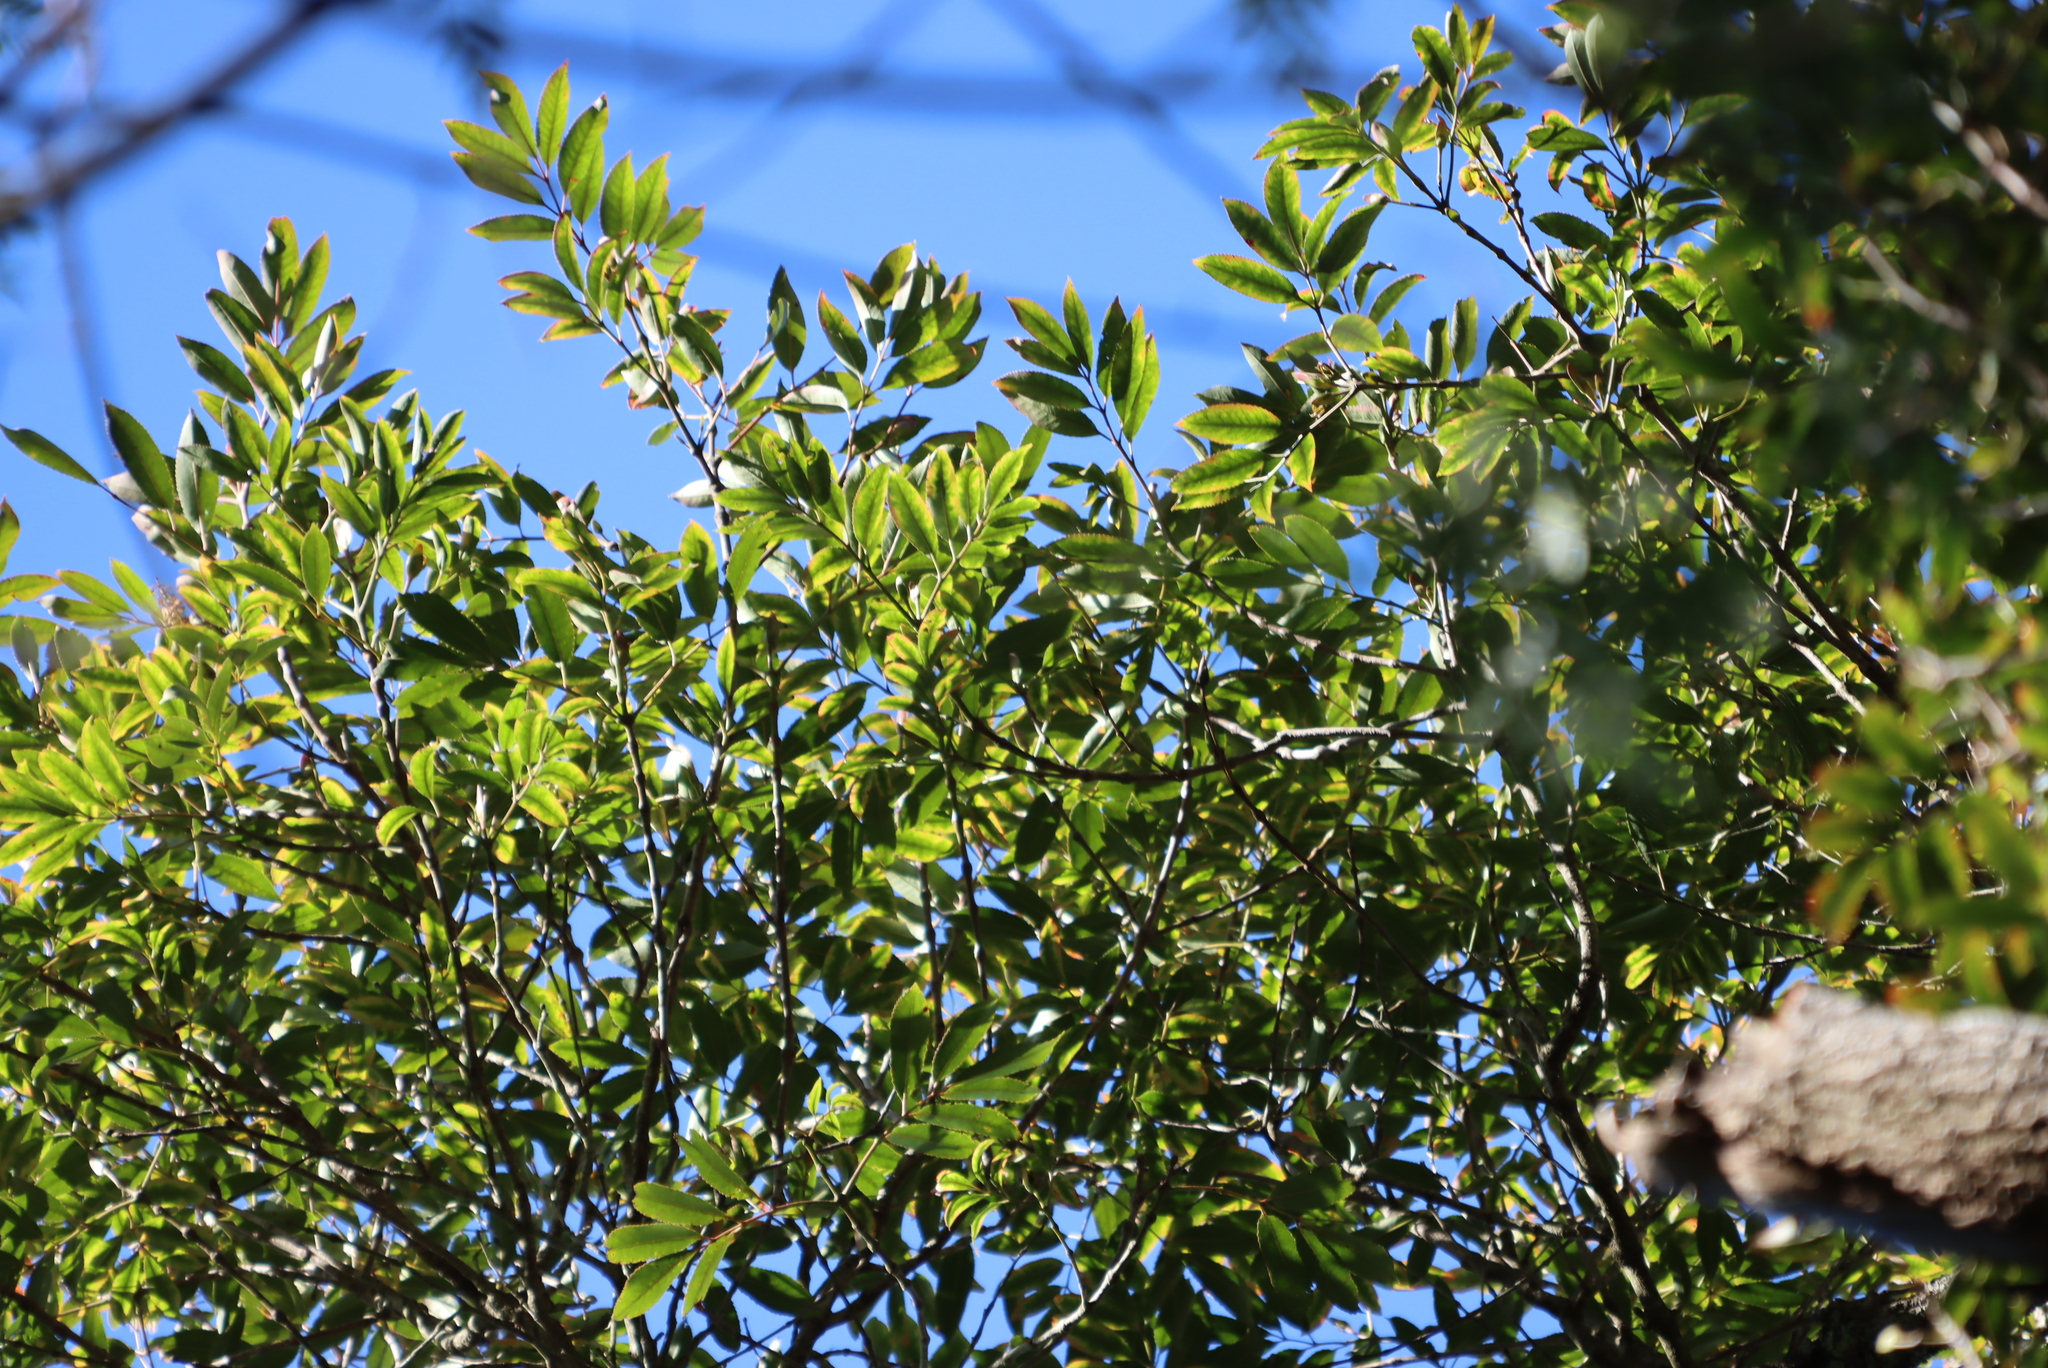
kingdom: Plantae
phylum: Tracheophyta
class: Magnoliopsida
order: Oxalidales
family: Cunoniaceae
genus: Cunonia
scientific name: Cunonia capensis
